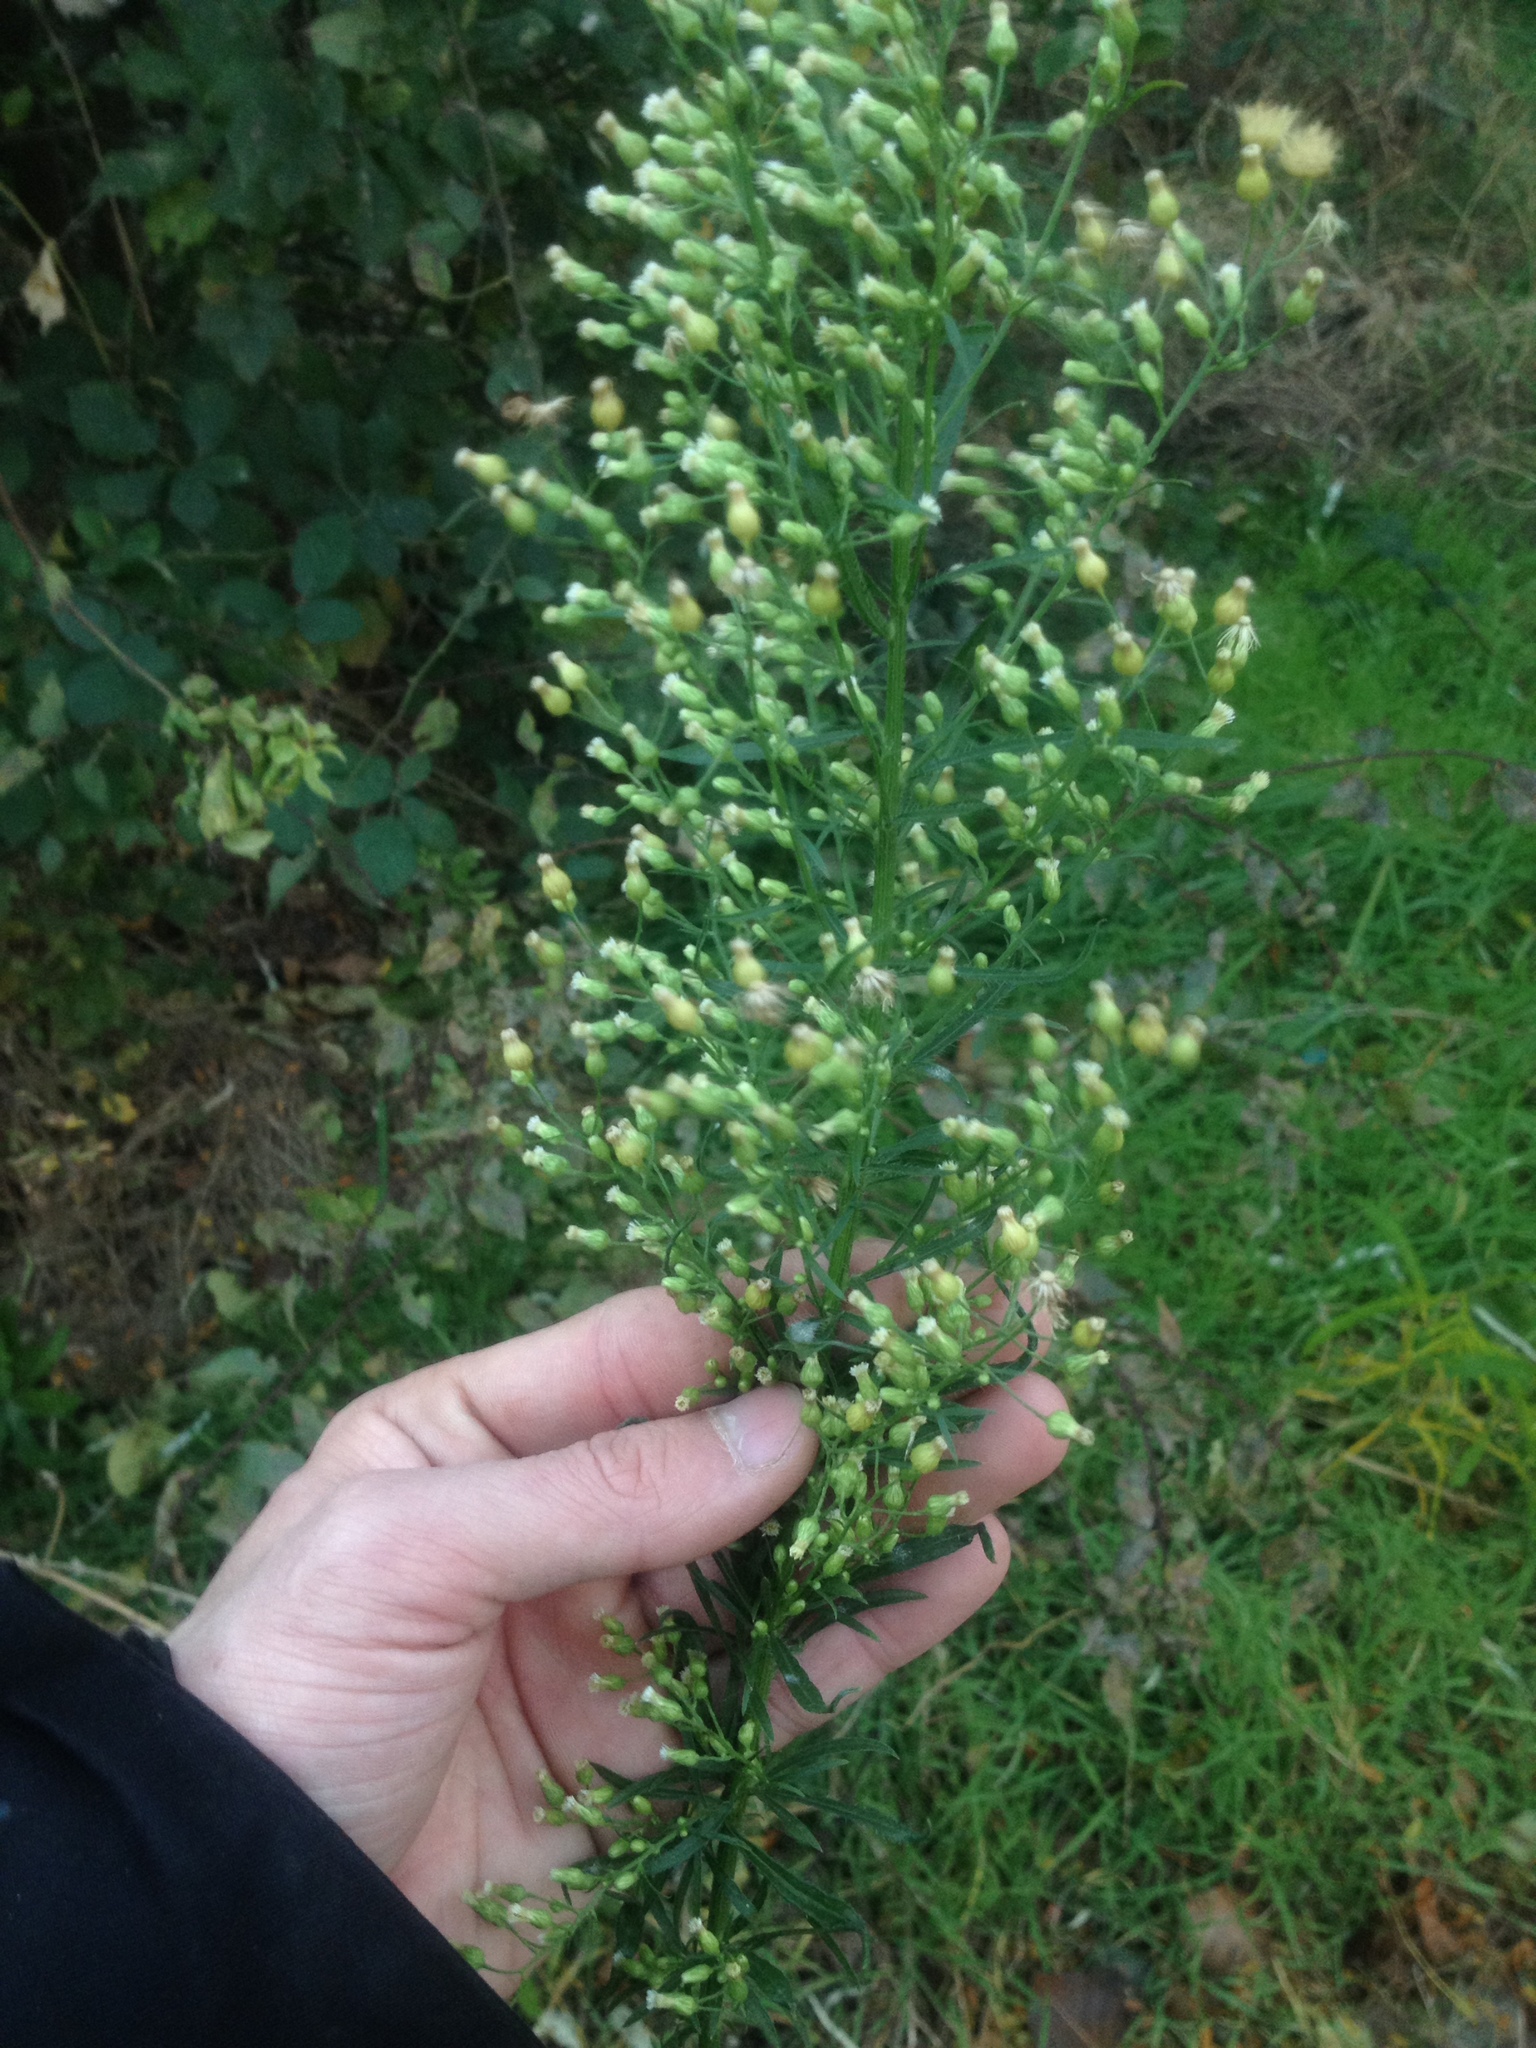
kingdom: Plantae
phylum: Tracheophyta
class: Magnoliopsida
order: Asterales
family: Asteraceae
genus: Erigeron
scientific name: Erigeron canadensis
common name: Canadian fleabane
